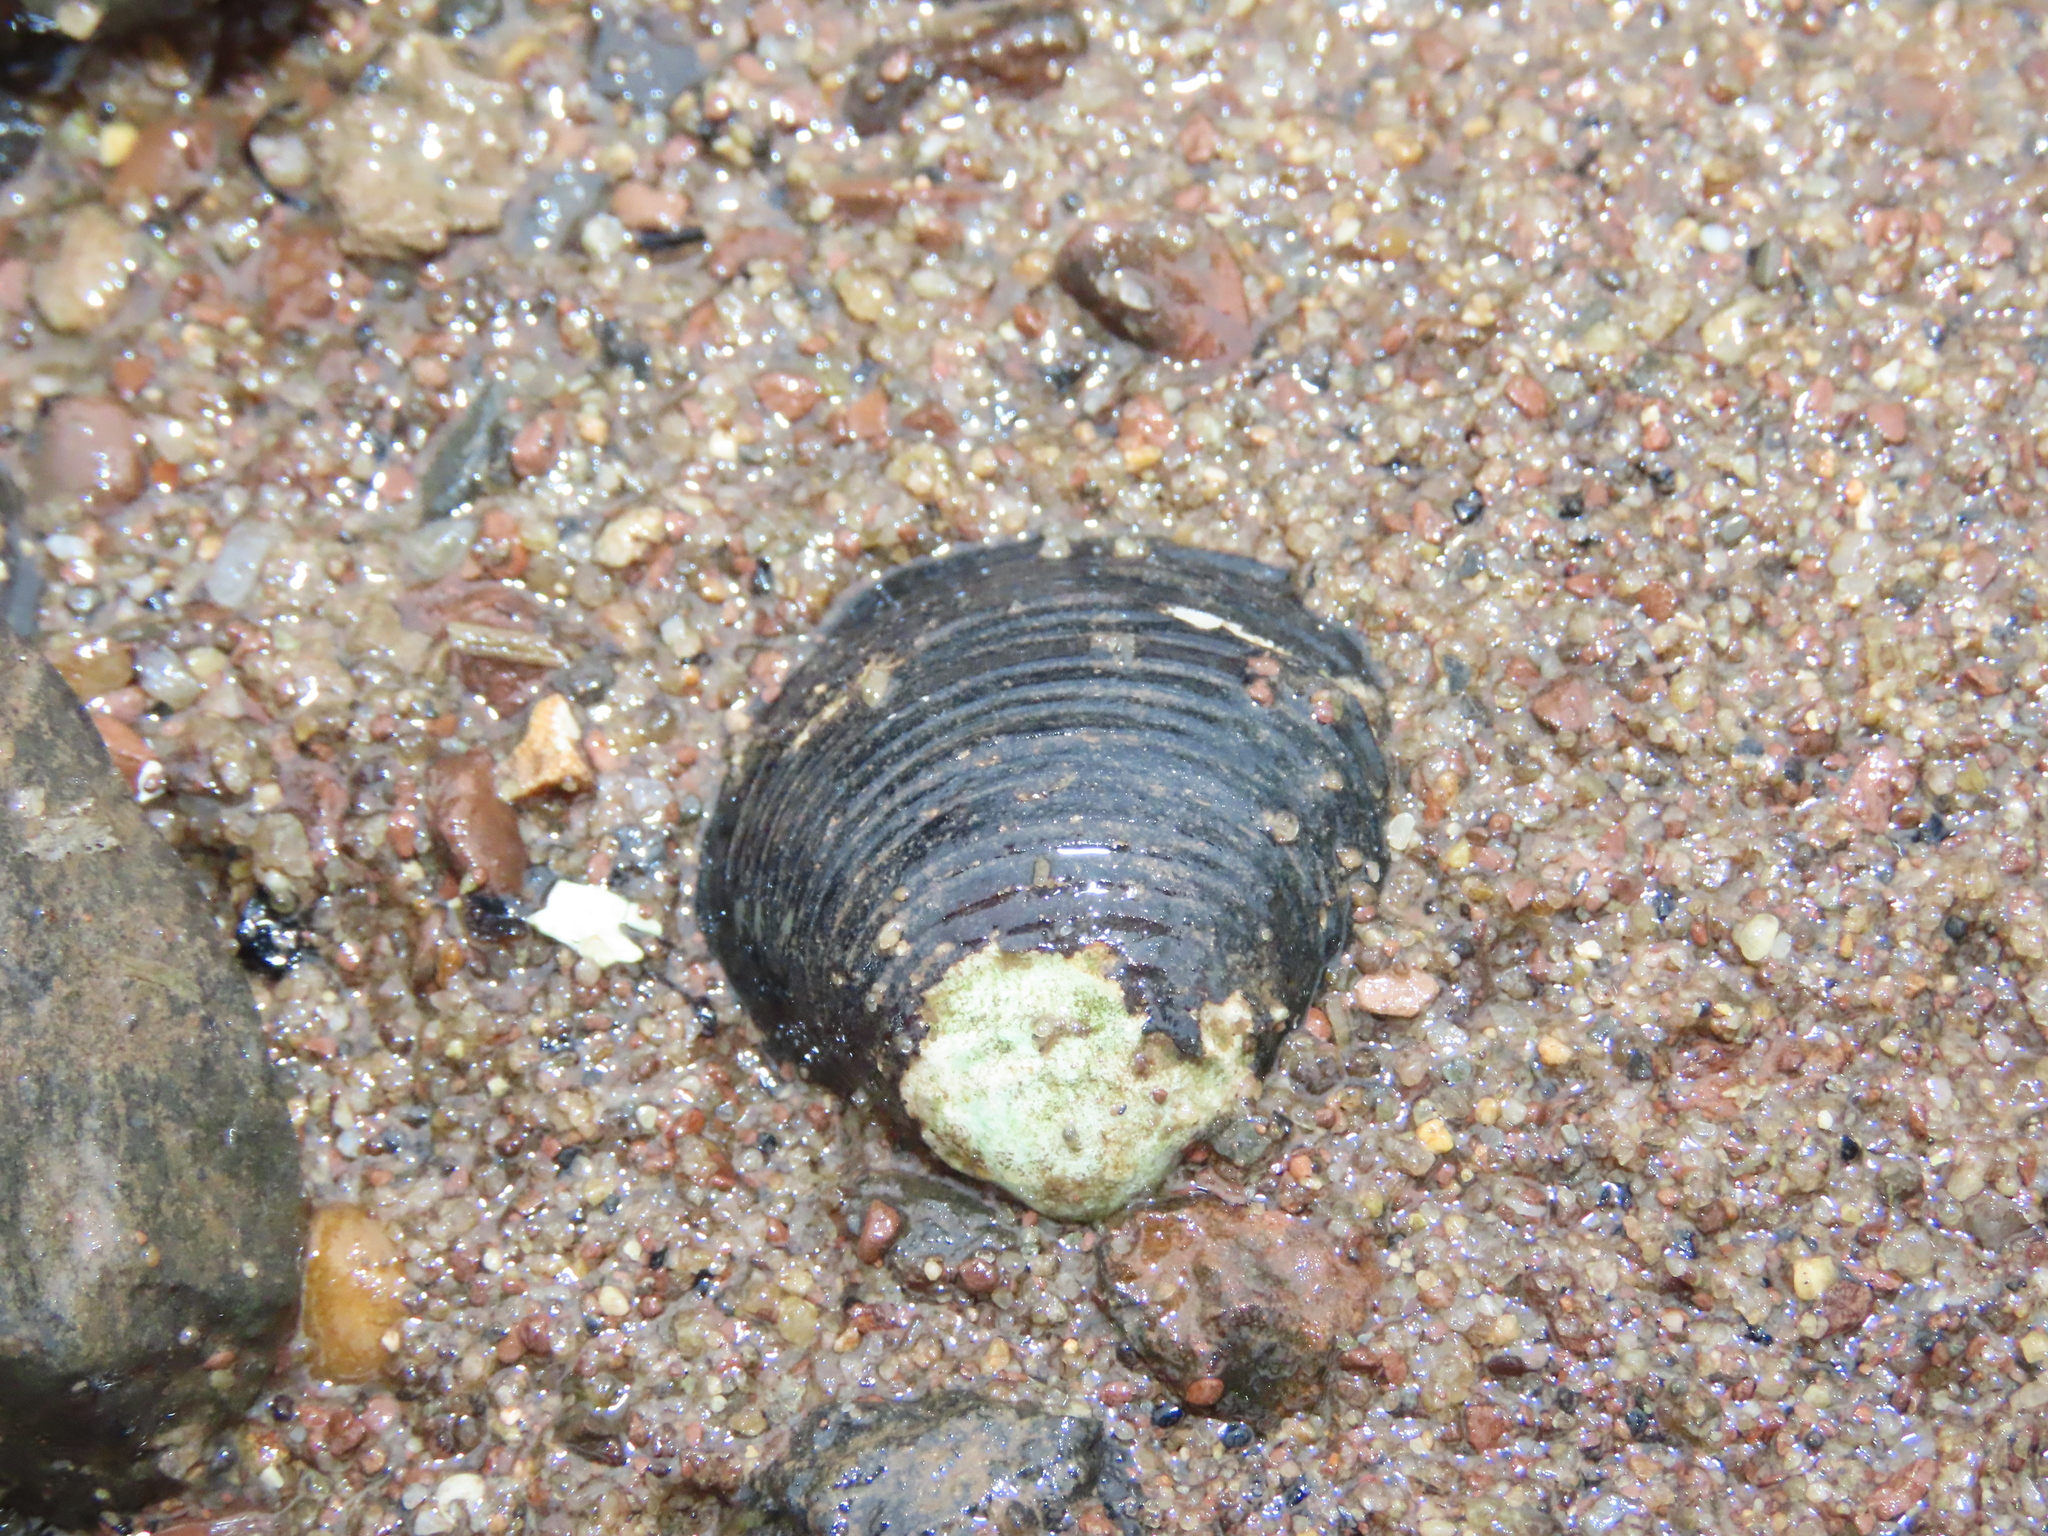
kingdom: Animalia
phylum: Mollusca
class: Bivalvia
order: Venerida
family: Cyrenidae
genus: Corbicula
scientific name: Corbicula fluminea
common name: Asian clam
